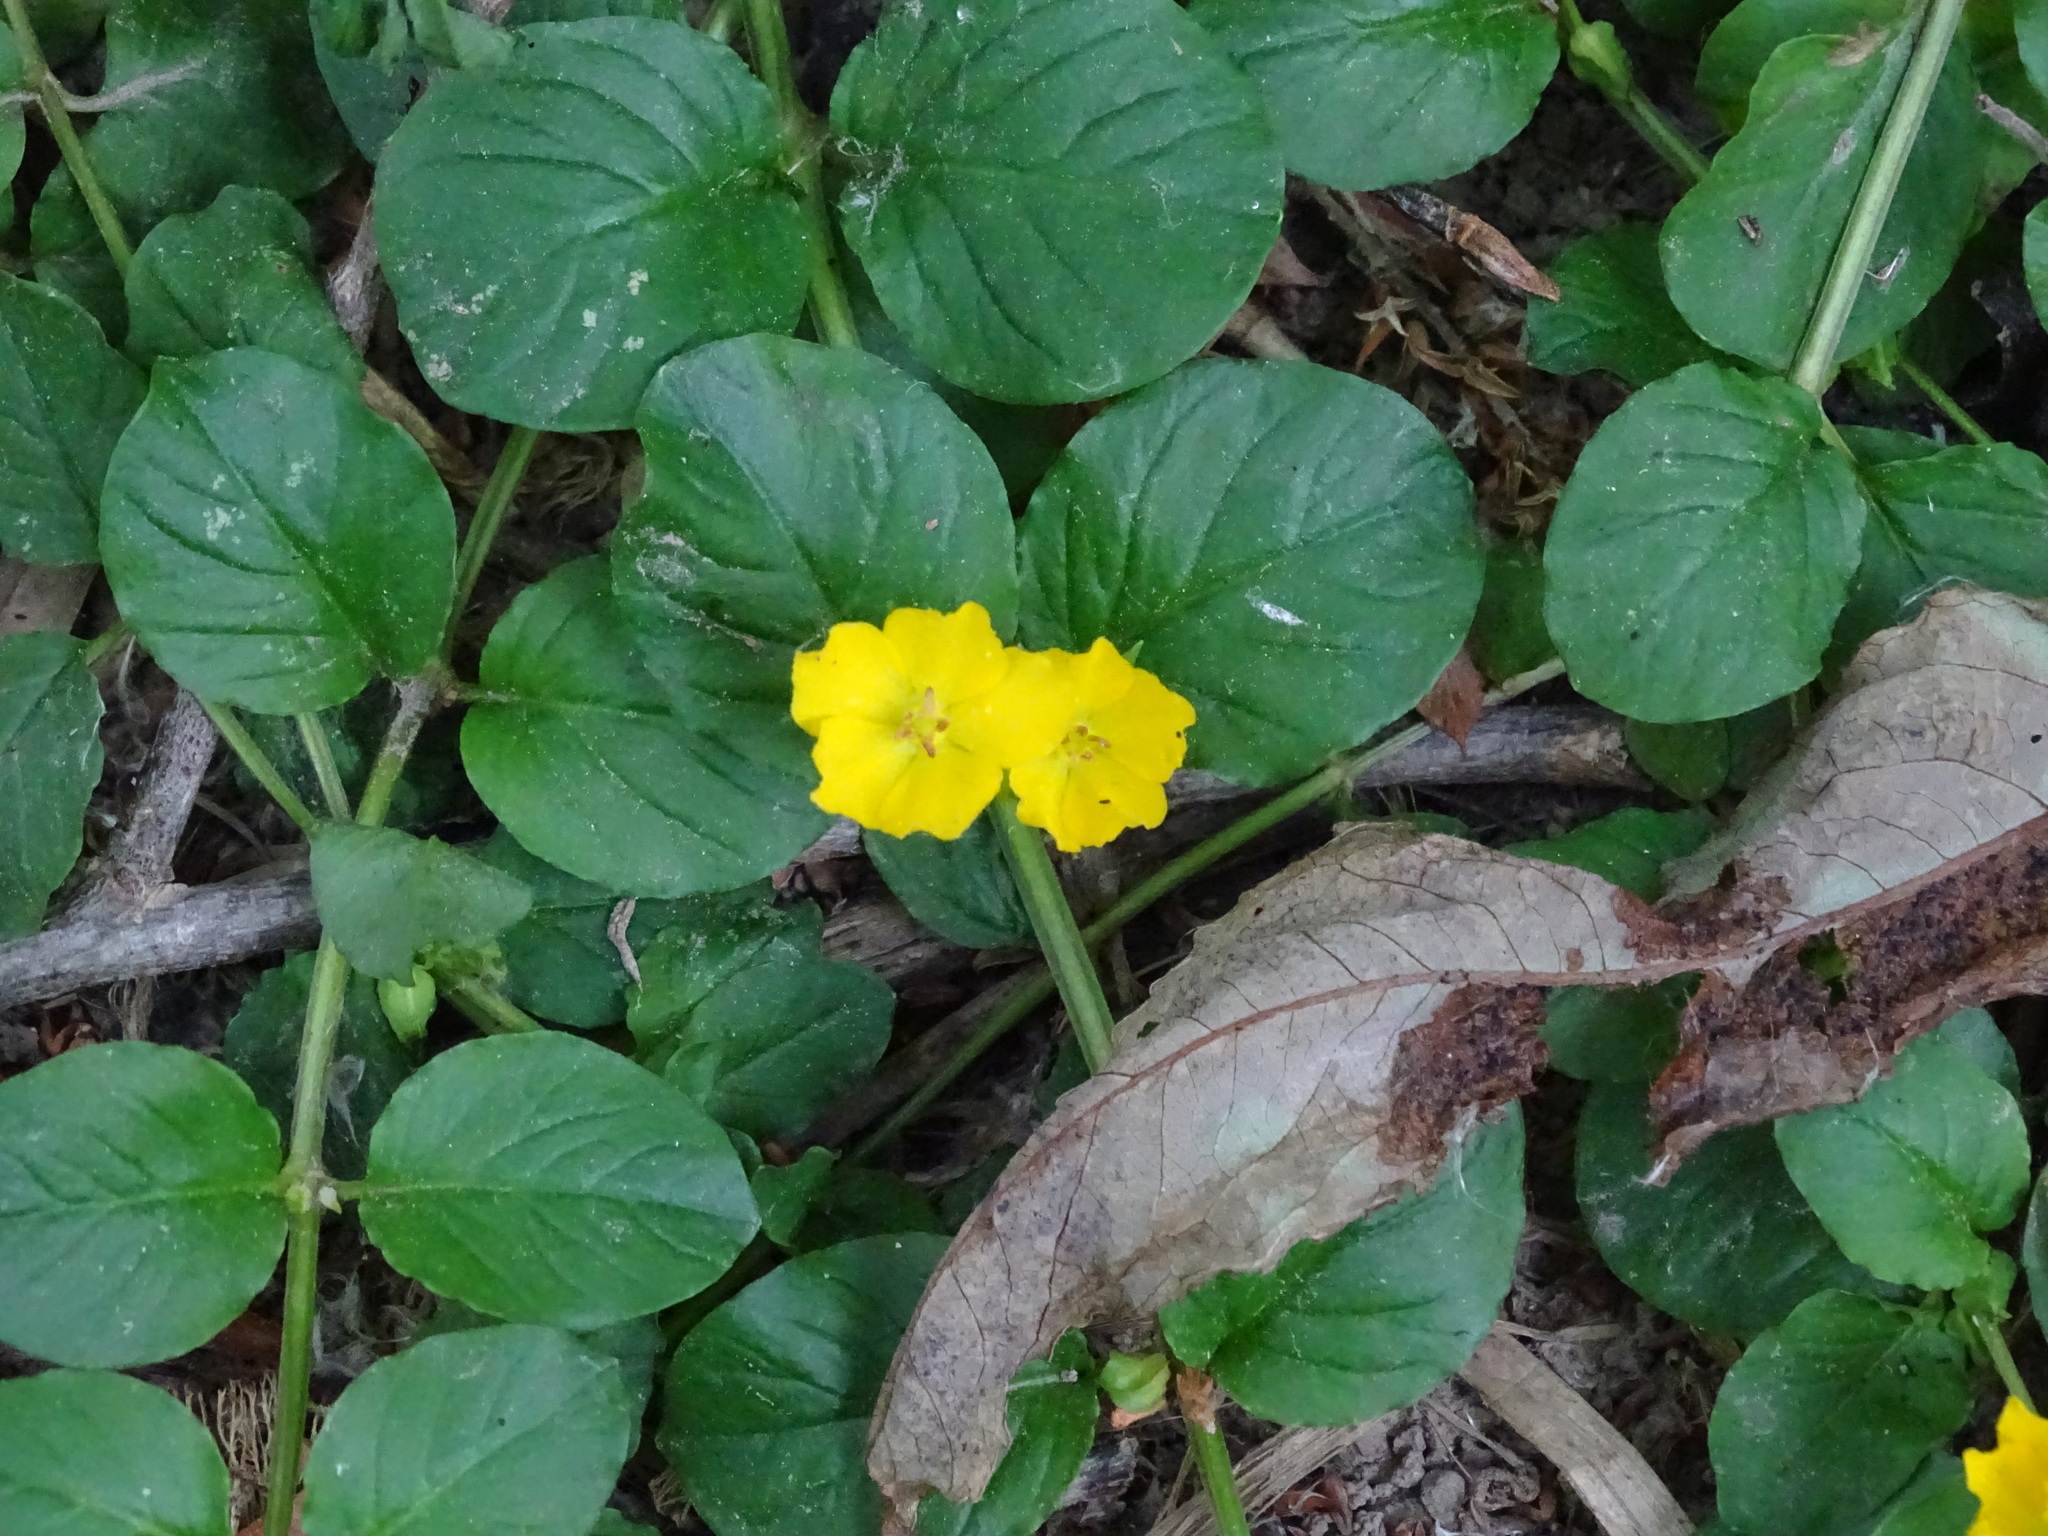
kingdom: Plantae
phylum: Tracheophyta
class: Magnoliopsida
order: Ericales
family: Primulaceae
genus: Lysimachia
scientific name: Lysimachia nummularia
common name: Moneywort
